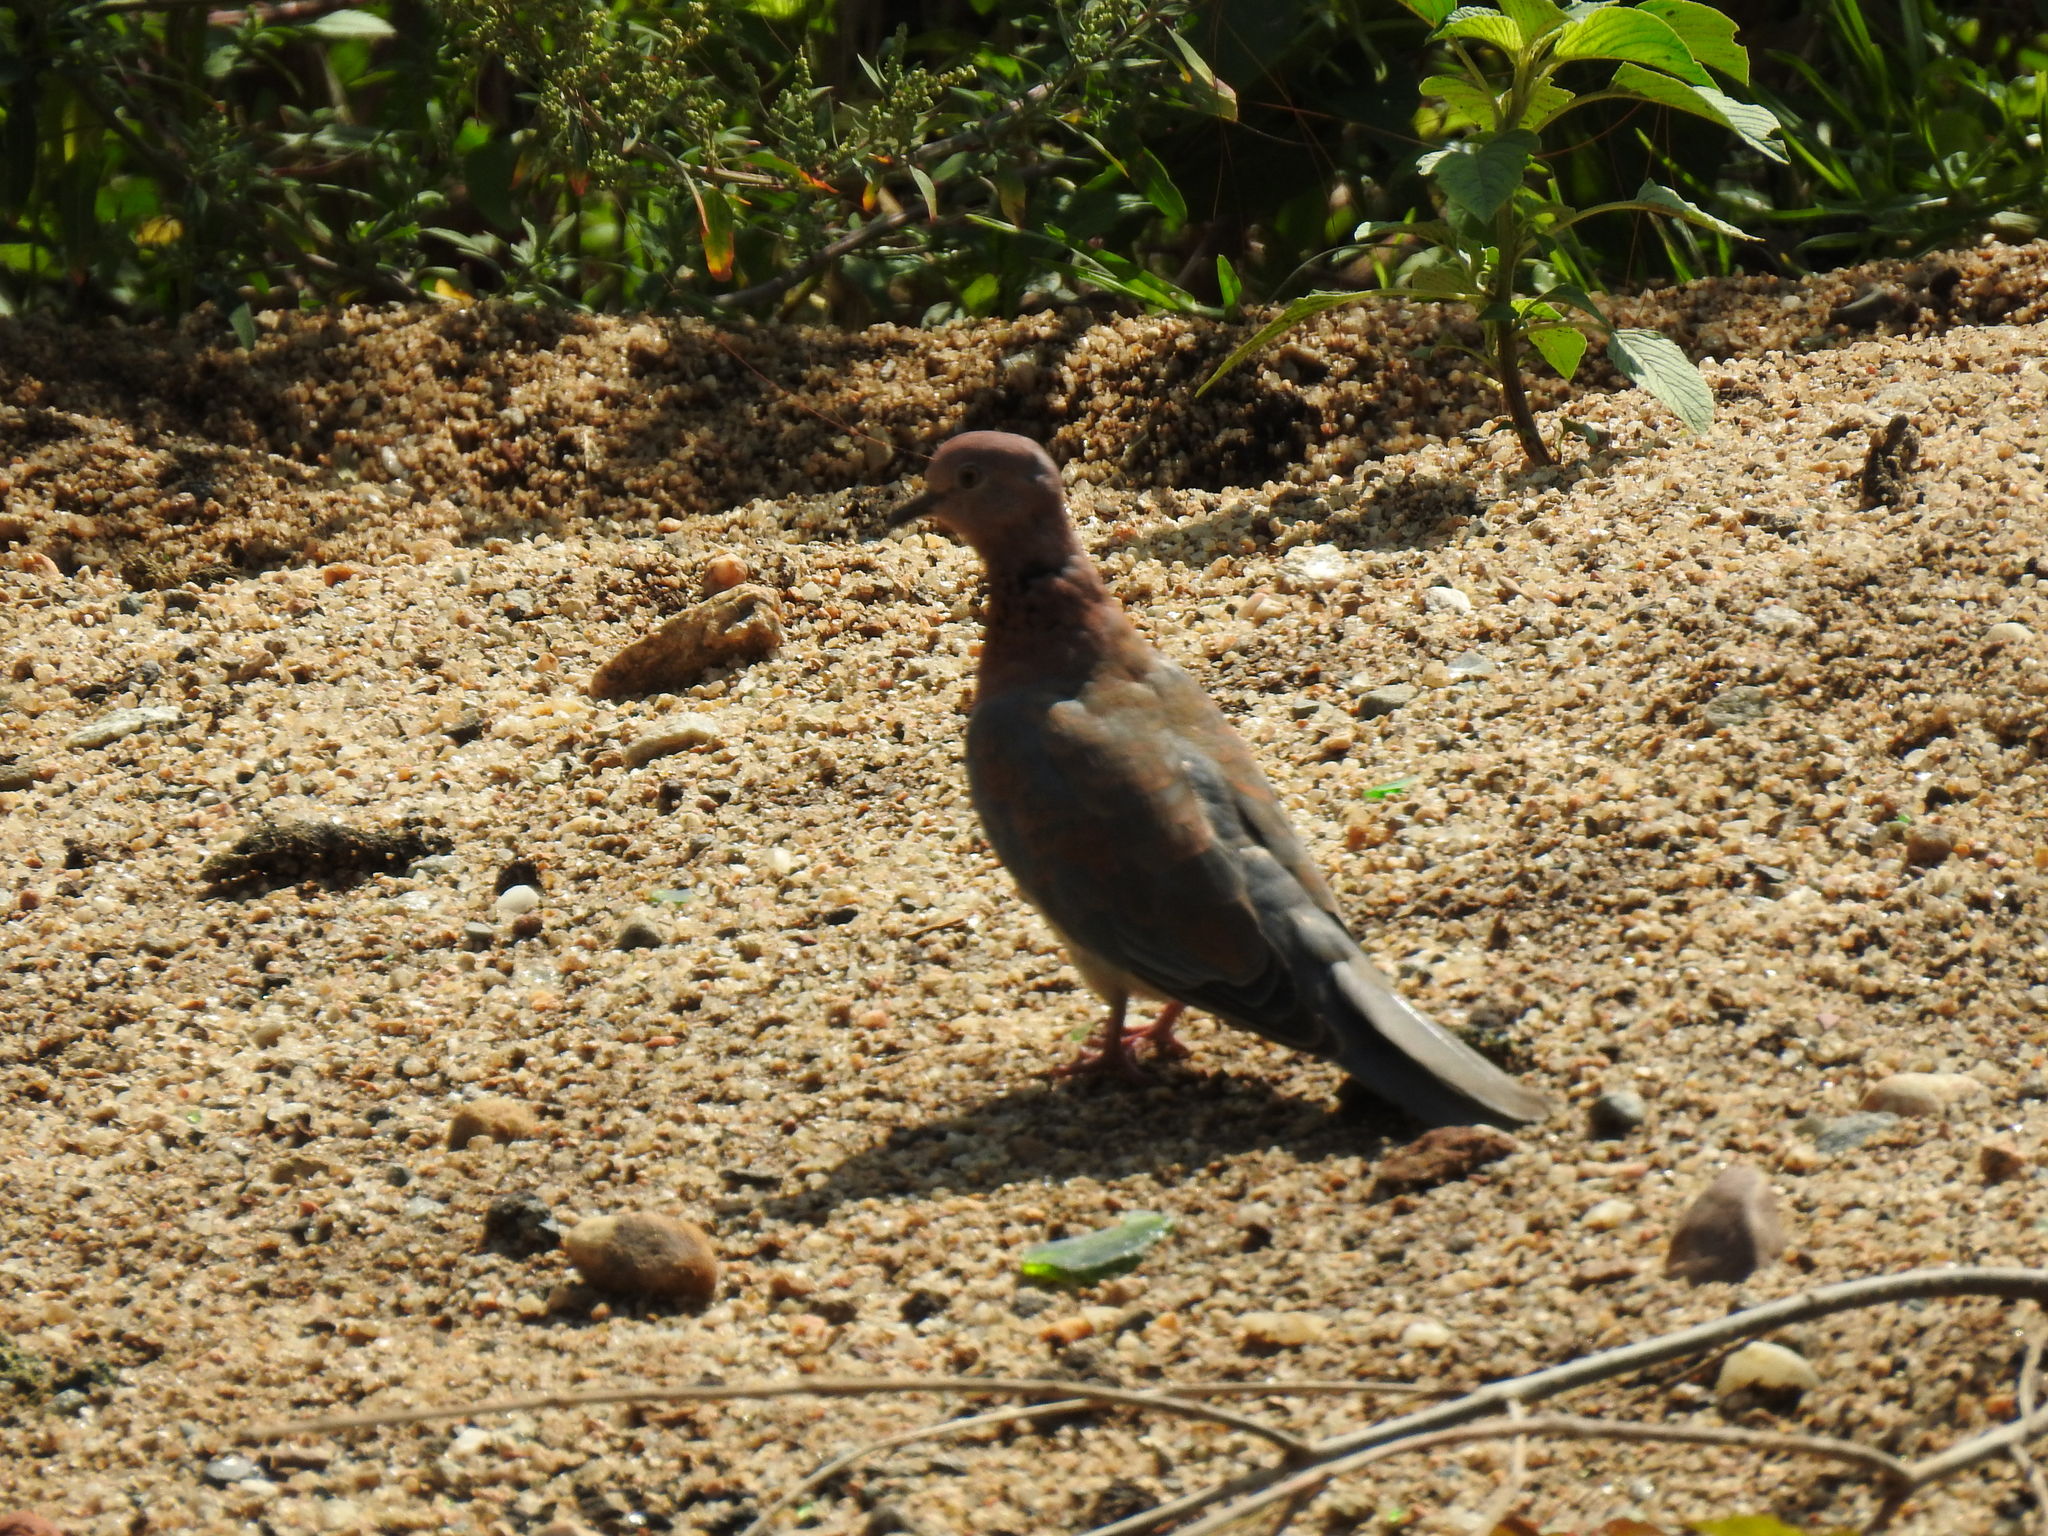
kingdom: Animalia
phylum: Chordata
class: Aves
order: Columbiformes
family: Columbidae
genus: Spilopelia
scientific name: Spilopelia senegalensis
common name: Laughing dove
